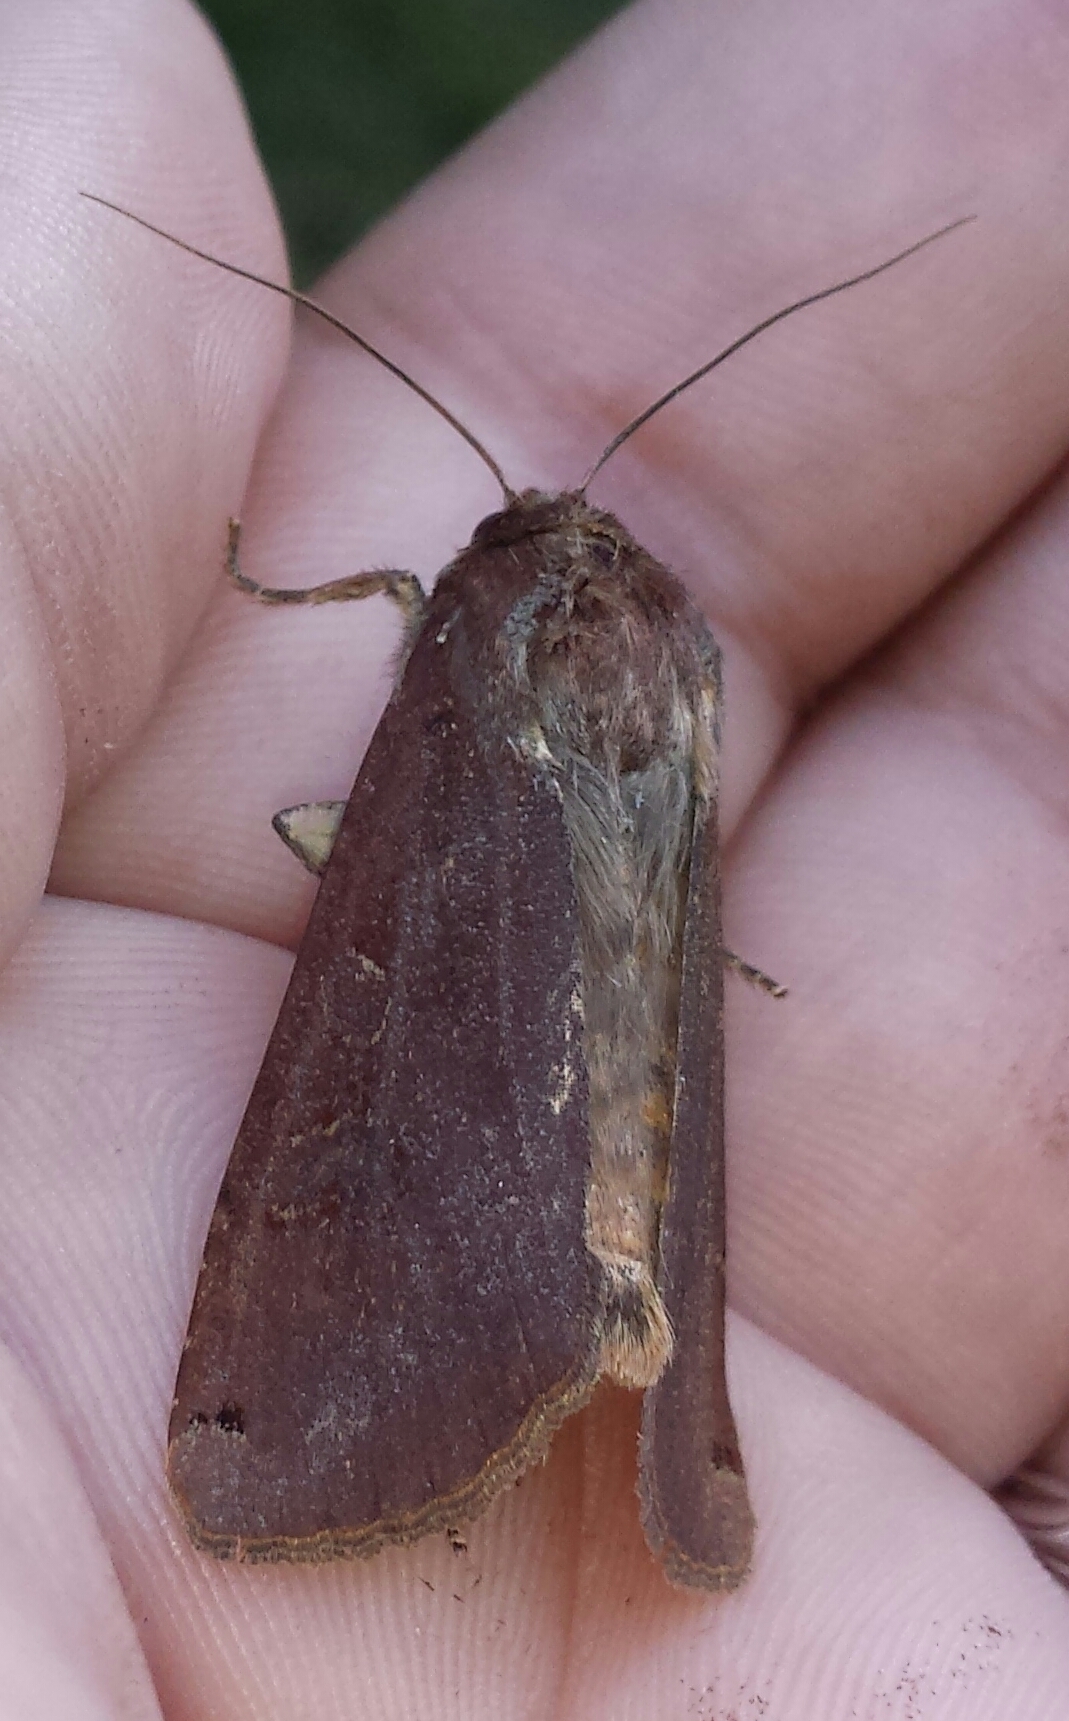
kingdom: Animalia
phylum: Arthropoda
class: Insecta
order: Lepidoptera
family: Noctuidae
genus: Noctua
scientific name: Noctua pronuba
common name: Large yellow underwing
